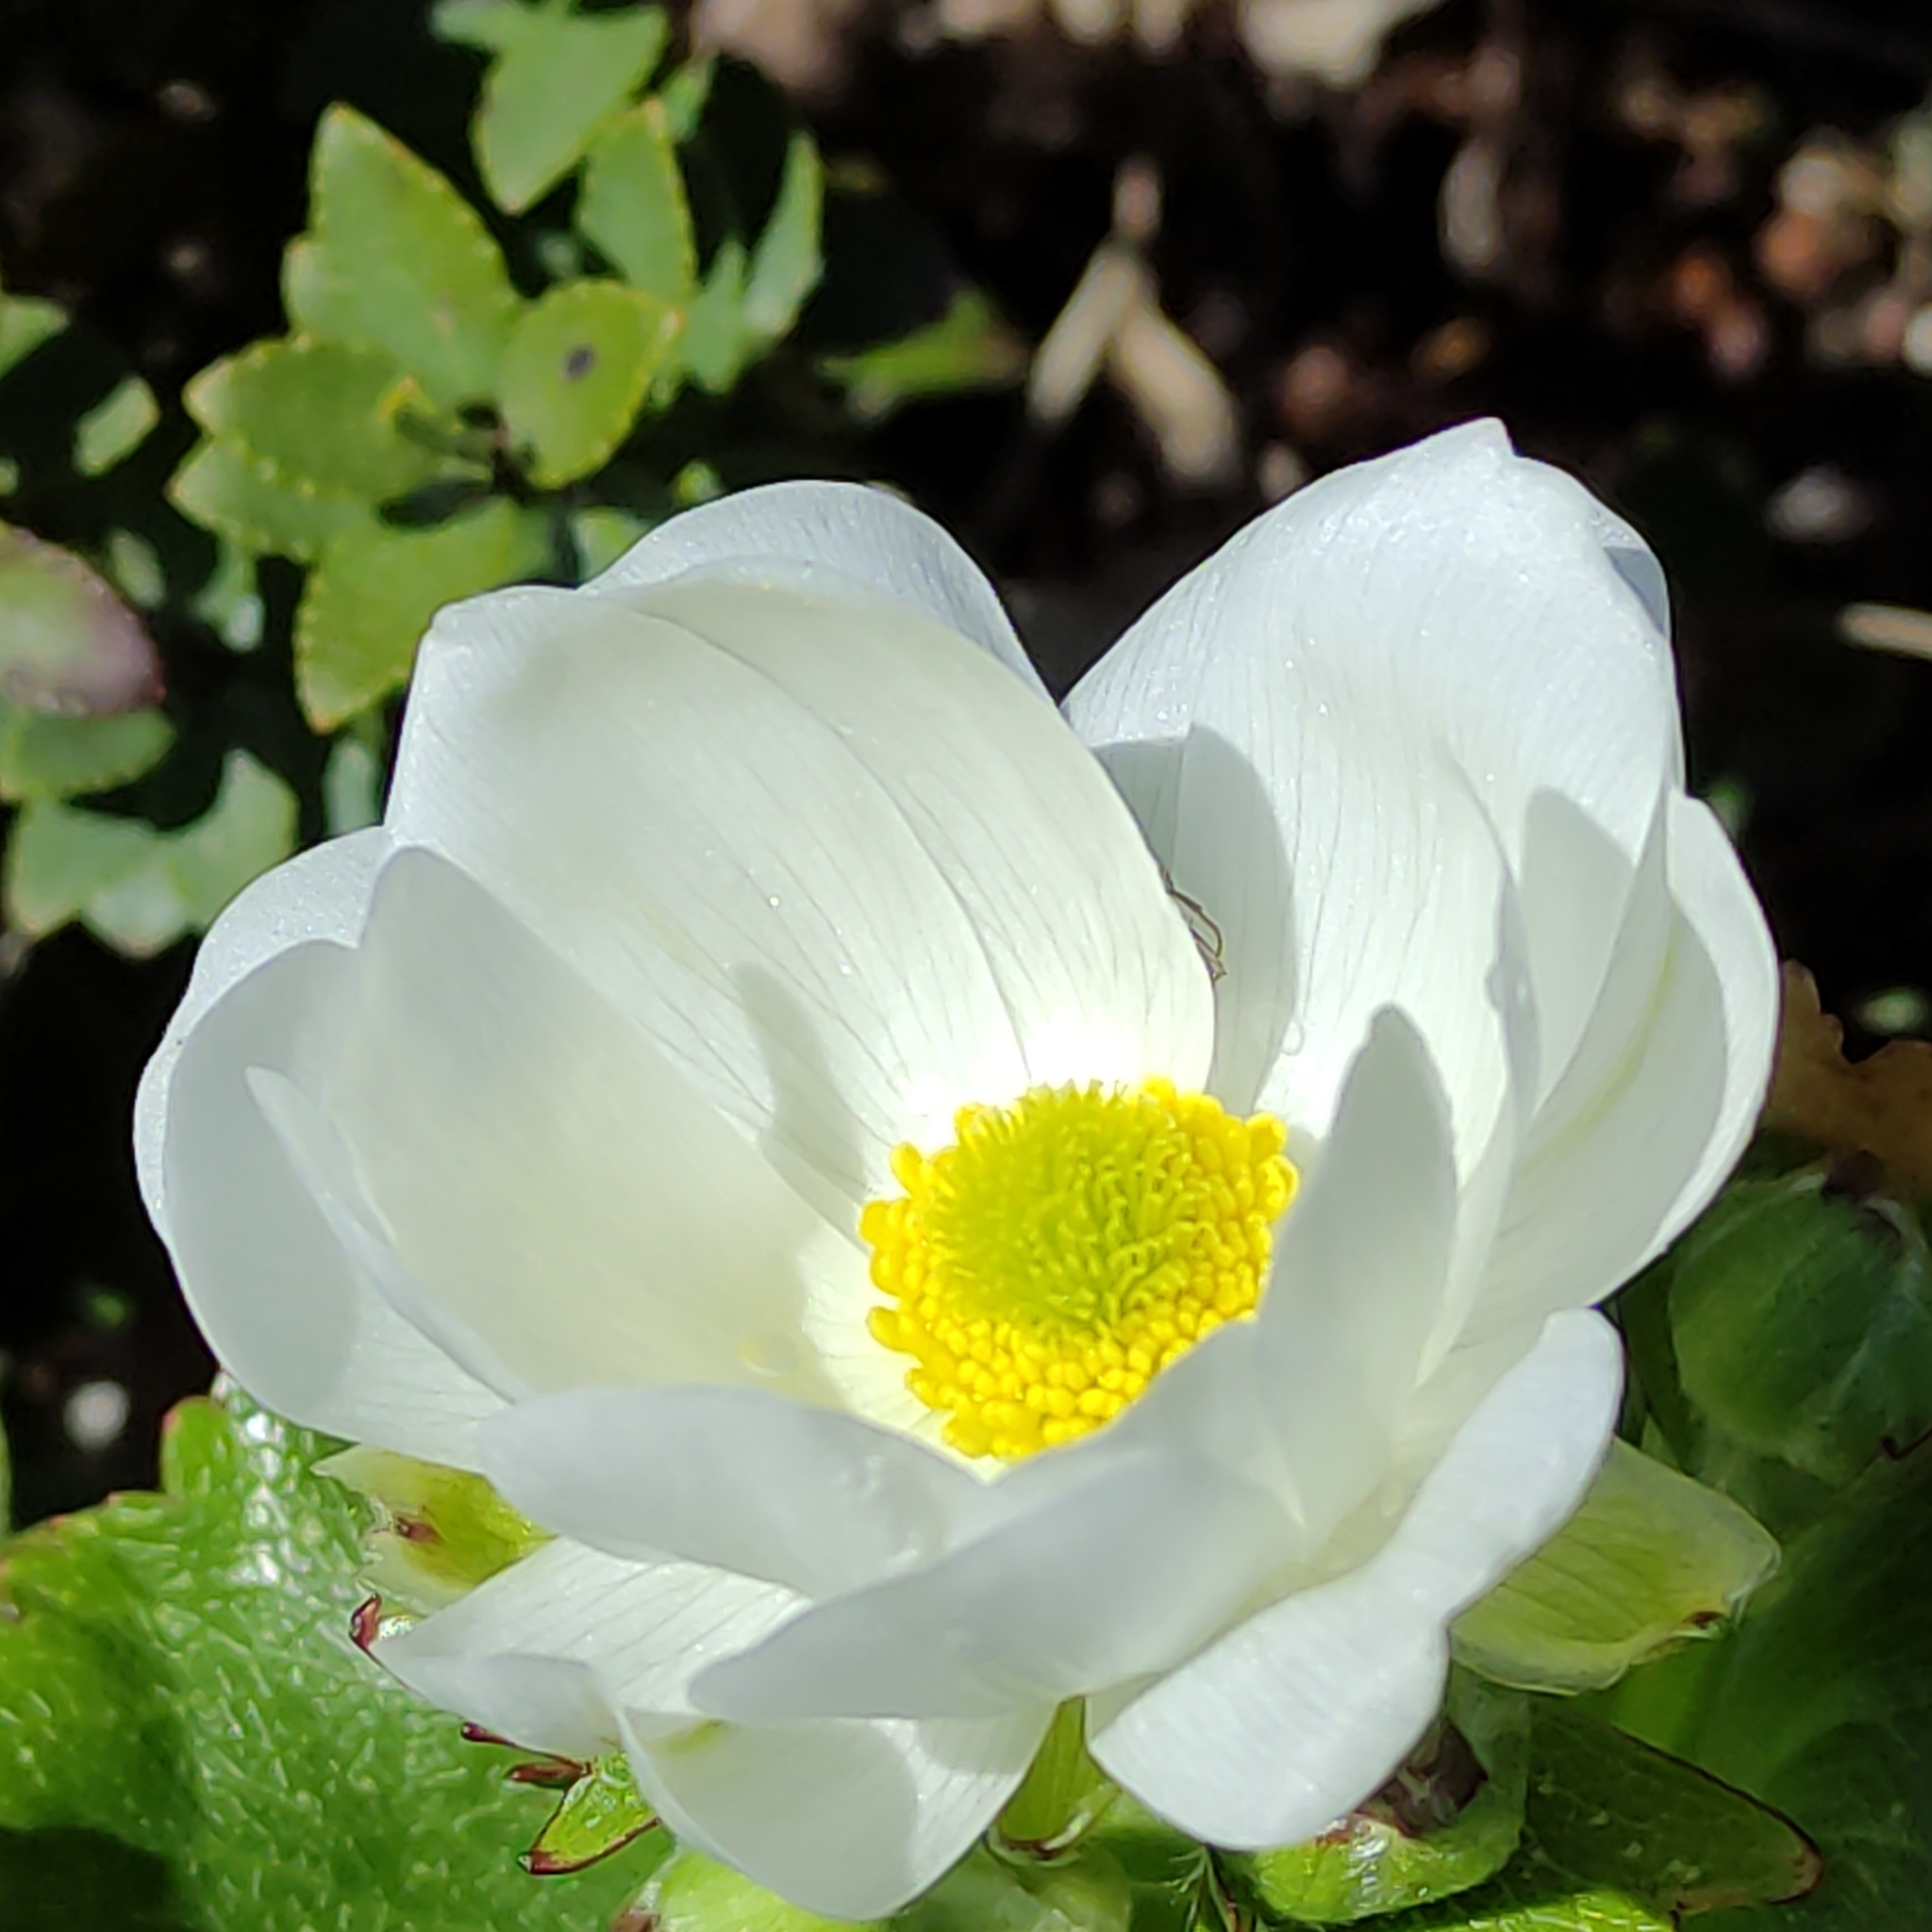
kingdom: Plantae
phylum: Tracheophyta
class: Magnoliopsida
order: Ranunculales
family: Ranunculaceae
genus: Ranunculus
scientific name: Ranunculus lyallii
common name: Mountain-lily
